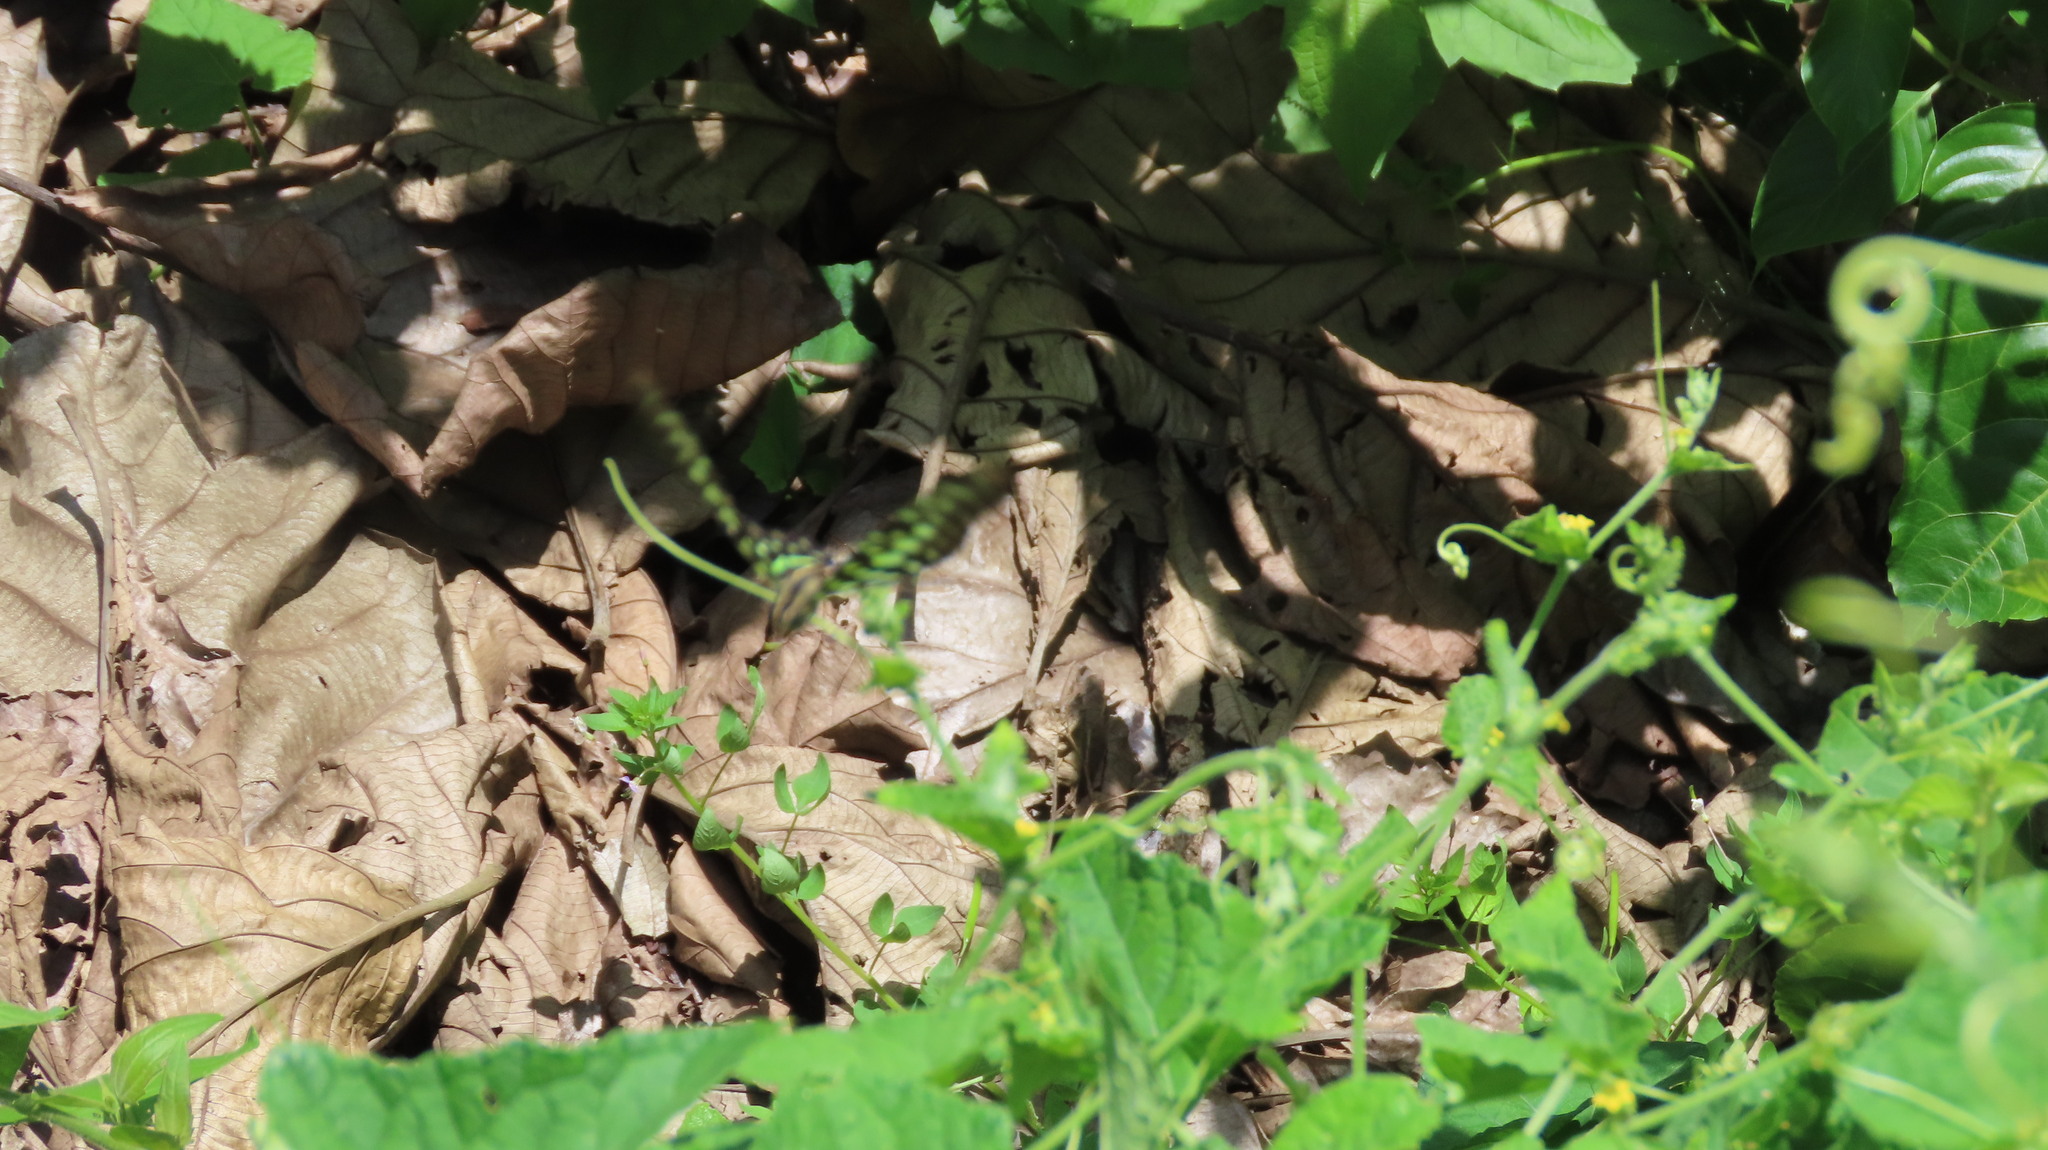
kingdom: Animalia
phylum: Arthropoda
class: Insecta
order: Lepidoptera
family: Papilionidae
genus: Graphium
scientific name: Graphium agamemnon
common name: Tailed jay
